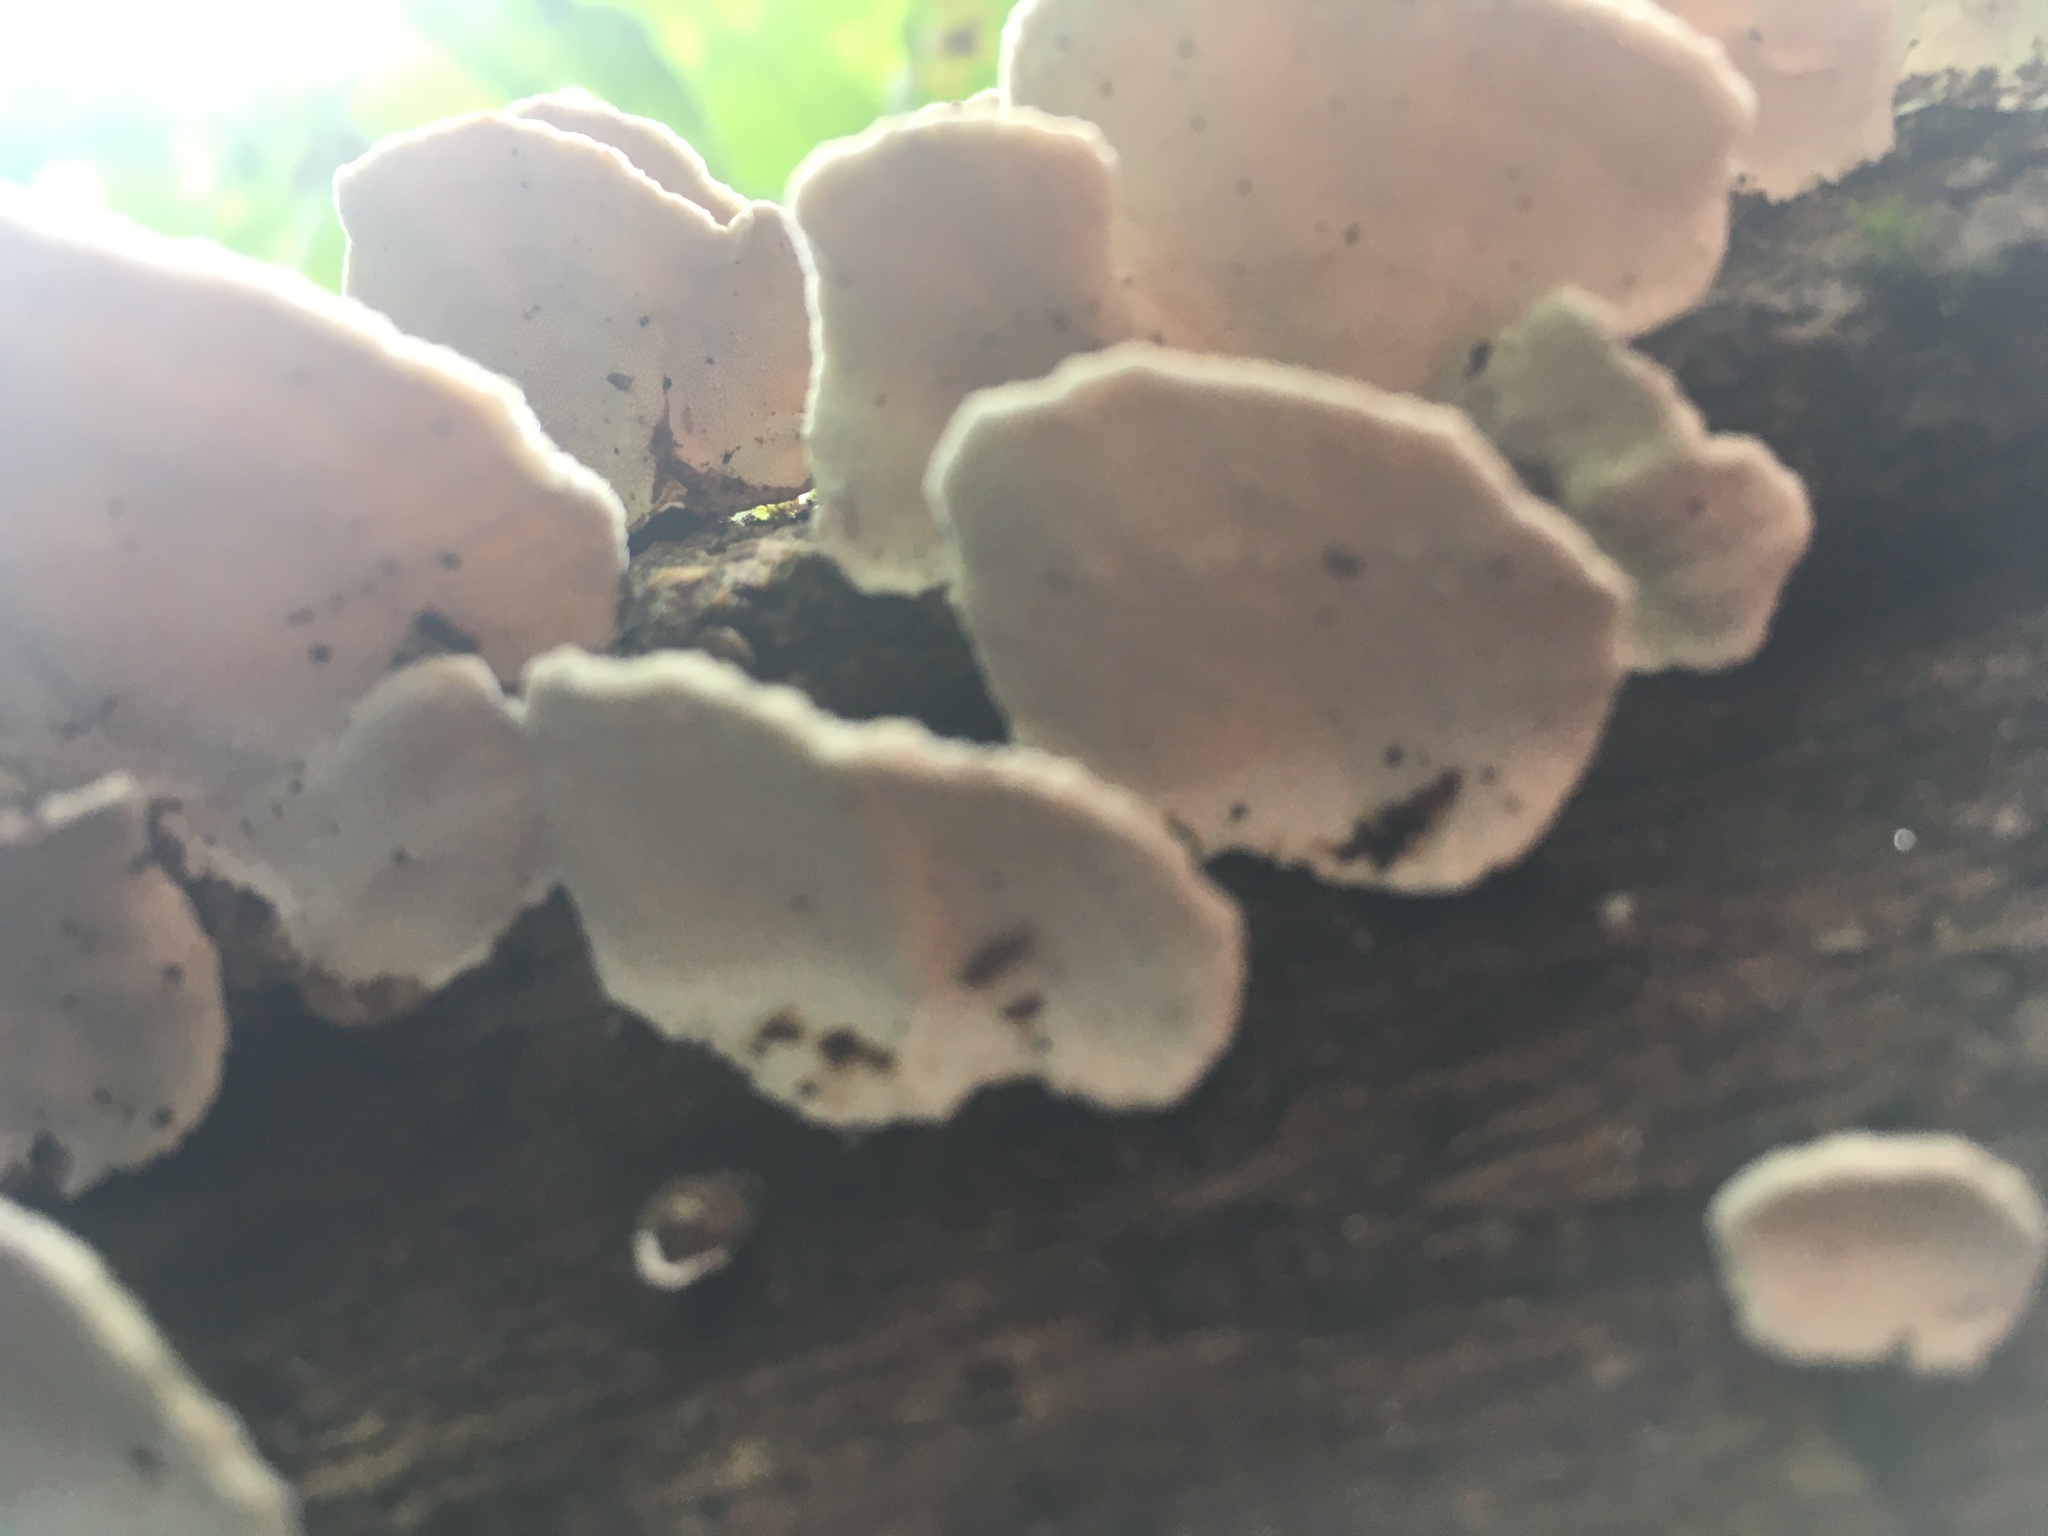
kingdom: Fungi
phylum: Basidiomycota
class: Agaricomycetes
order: Polyporales
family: Polyporaceae
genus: Trametes
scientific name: Trametes versicolor
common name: Turkeytail
